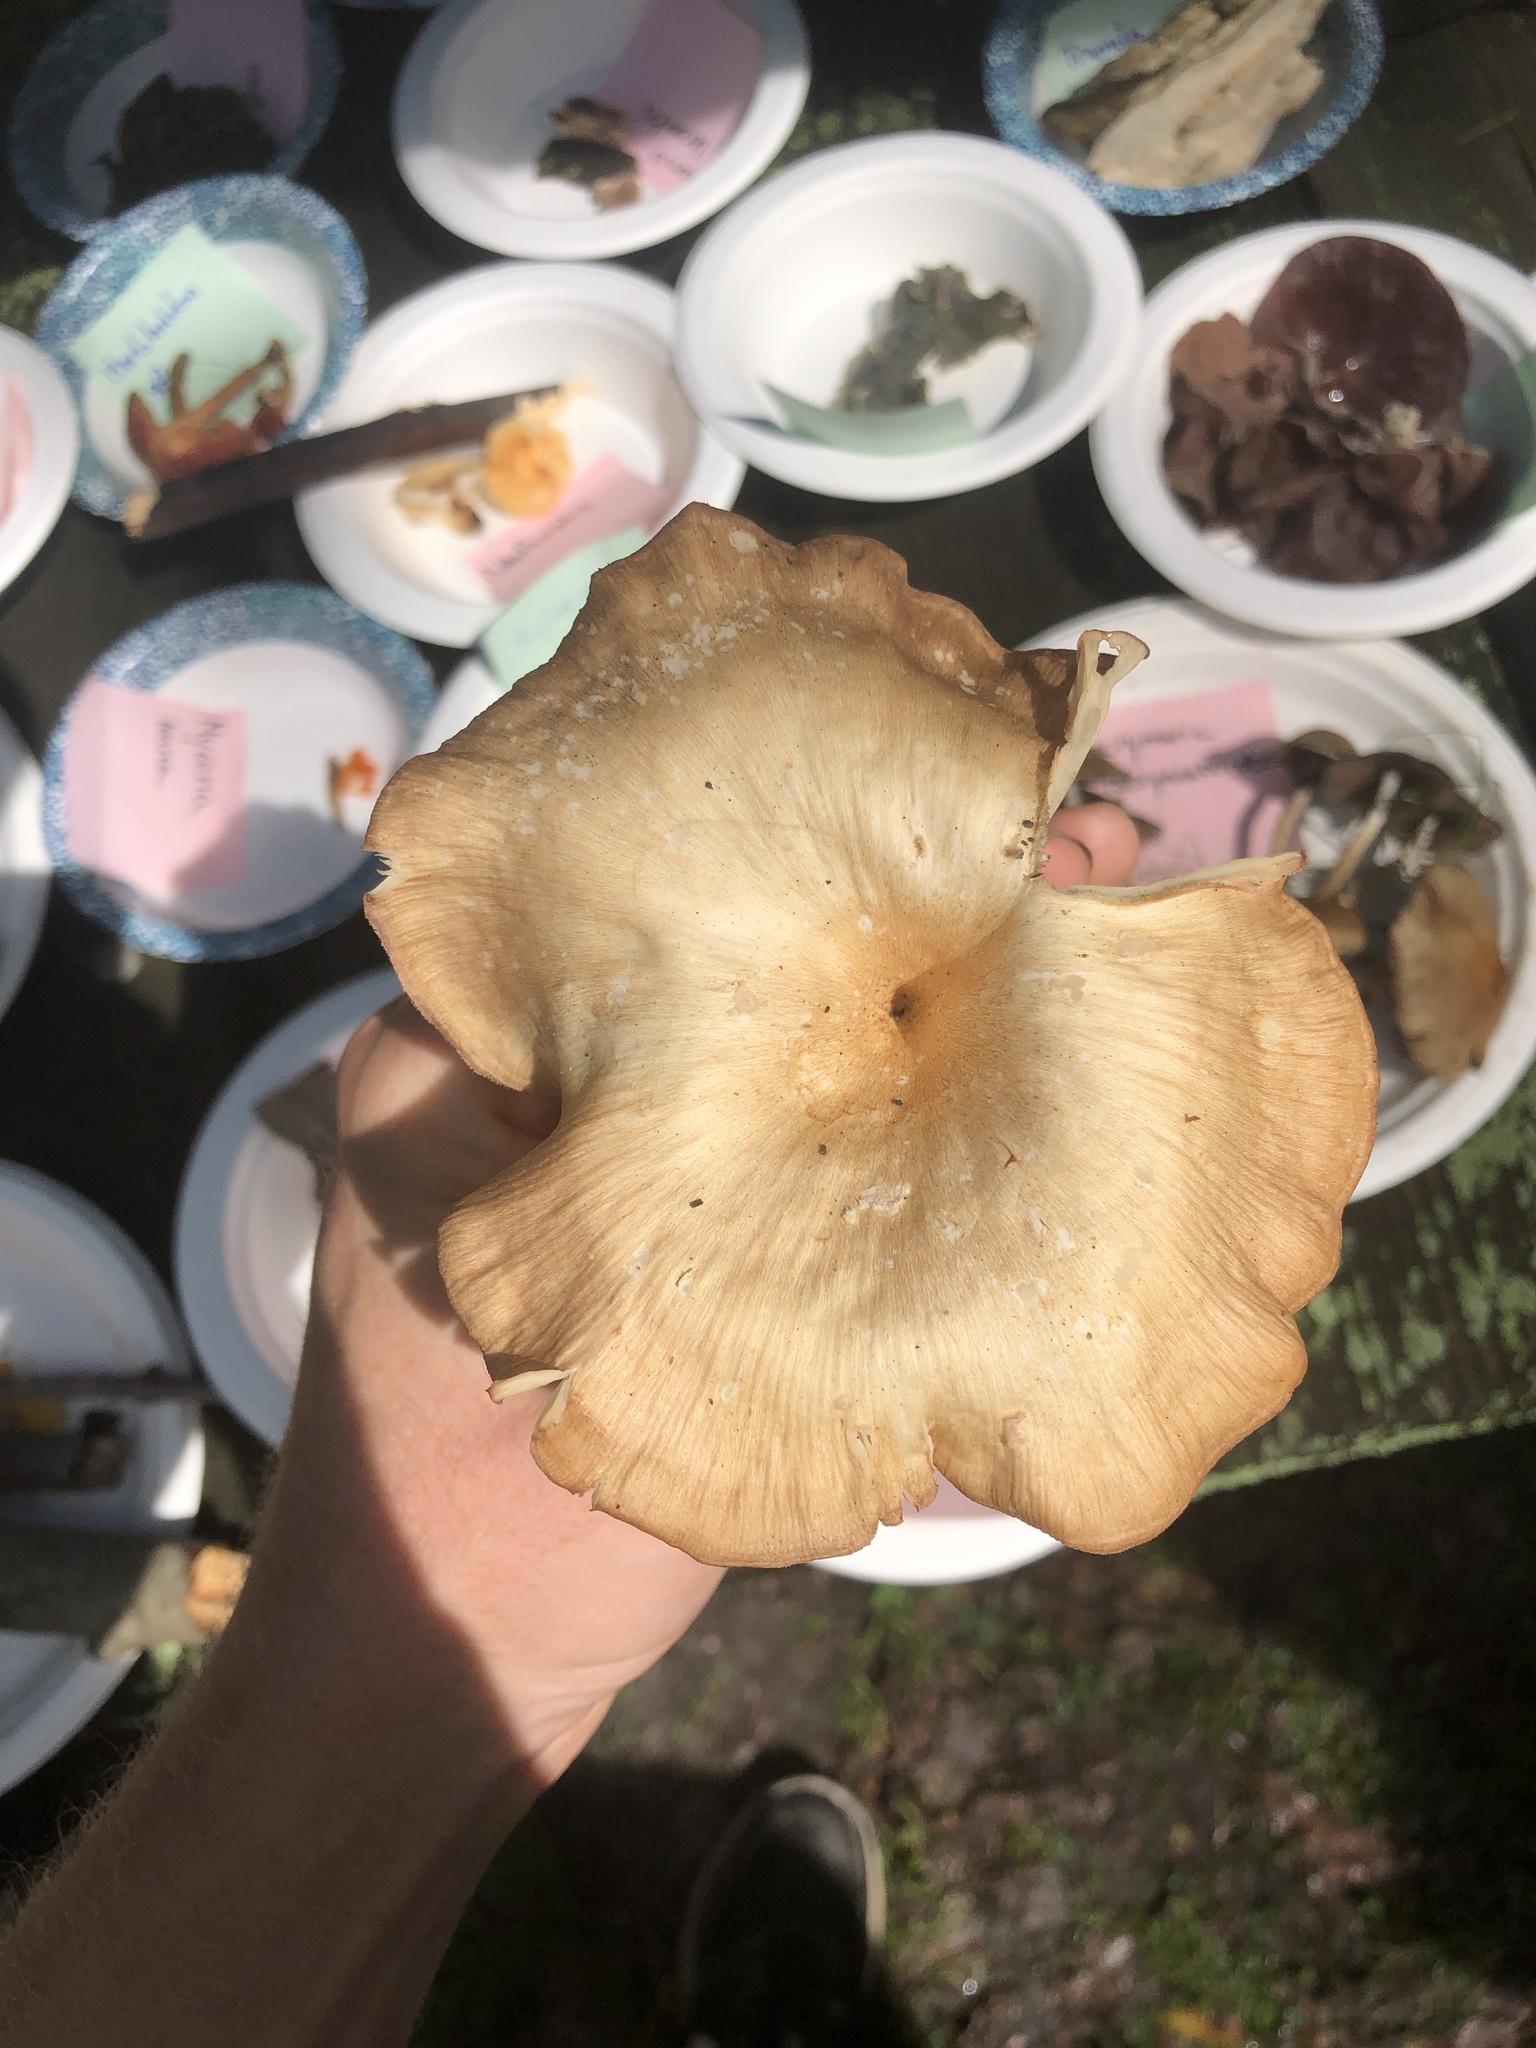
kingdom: Fungi
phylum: Basidiomycota
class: Agaricomycetes
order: Agaricales
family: Marasmiaceae
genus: Gerronema
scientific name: Gerronema strombodes
